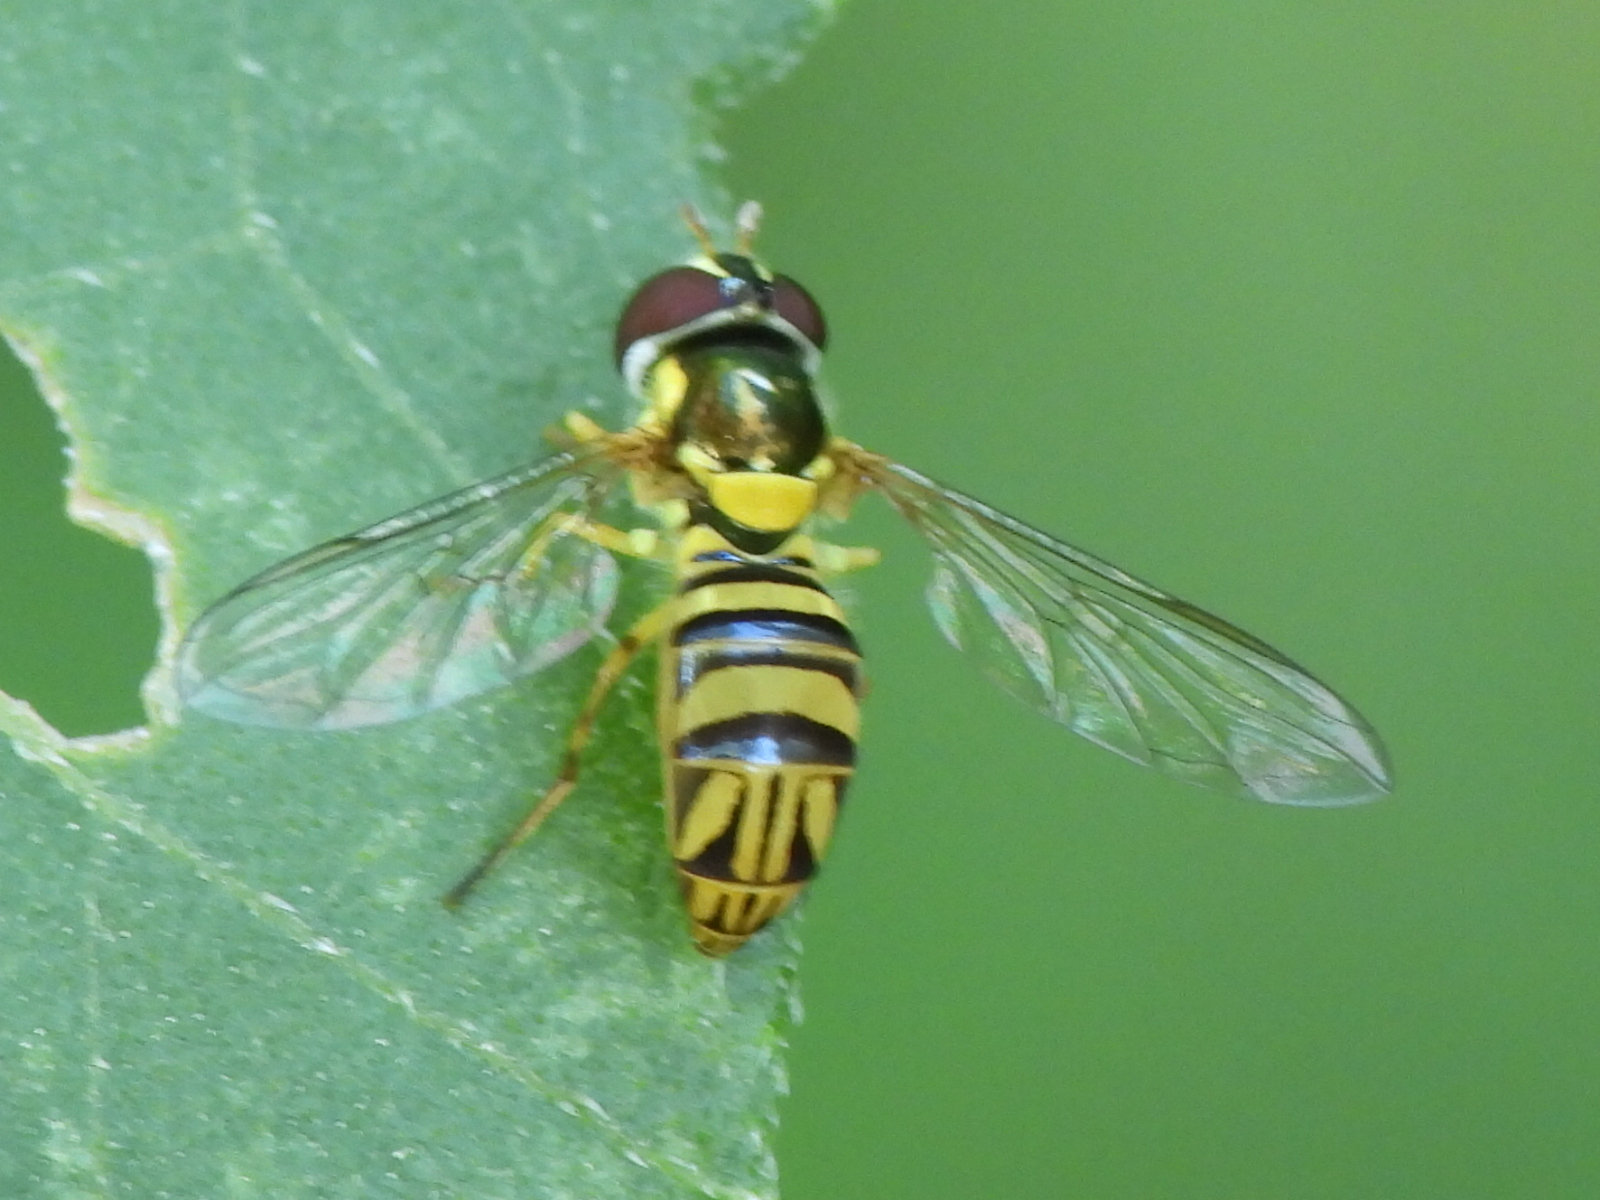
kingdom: Animalia
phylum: Arthropoda
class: Insecta
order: Diptera
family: Syrphidae
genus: Allograpta
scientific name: Allograpta obliqua
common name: Common oblique syrphid
